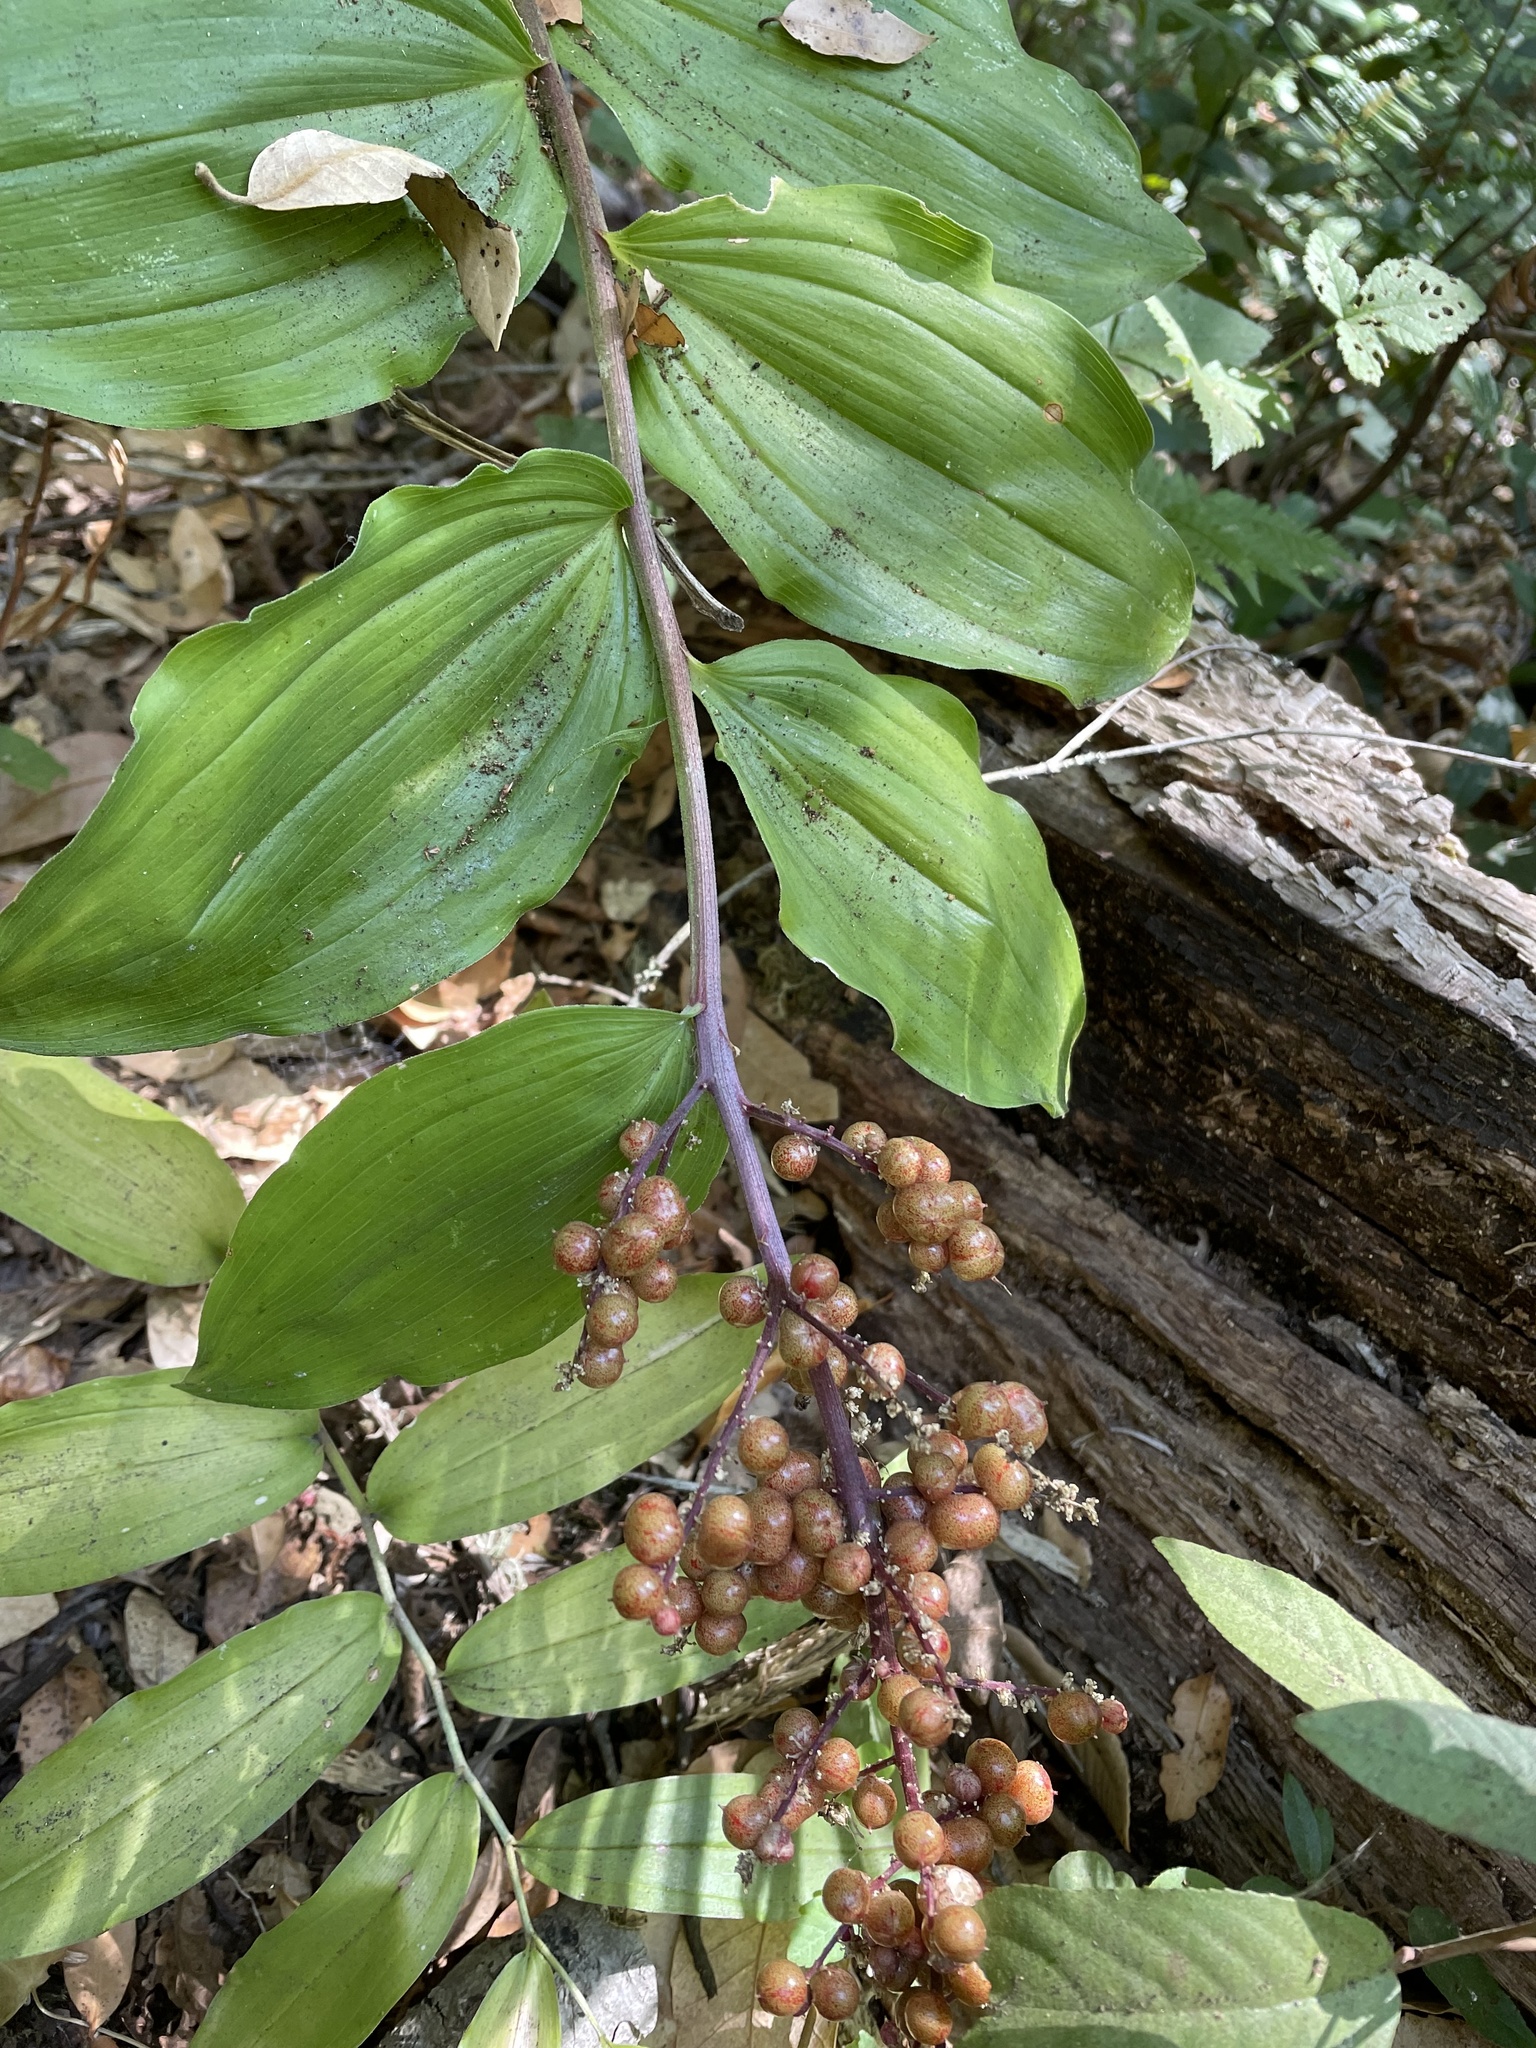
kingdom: Plantae
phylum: Tracheophyta
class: Liliopsida
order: Asparagales
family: Asparagaceae
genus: Maianthemum
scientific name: Maianthemum racemosum
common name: False spikenard
